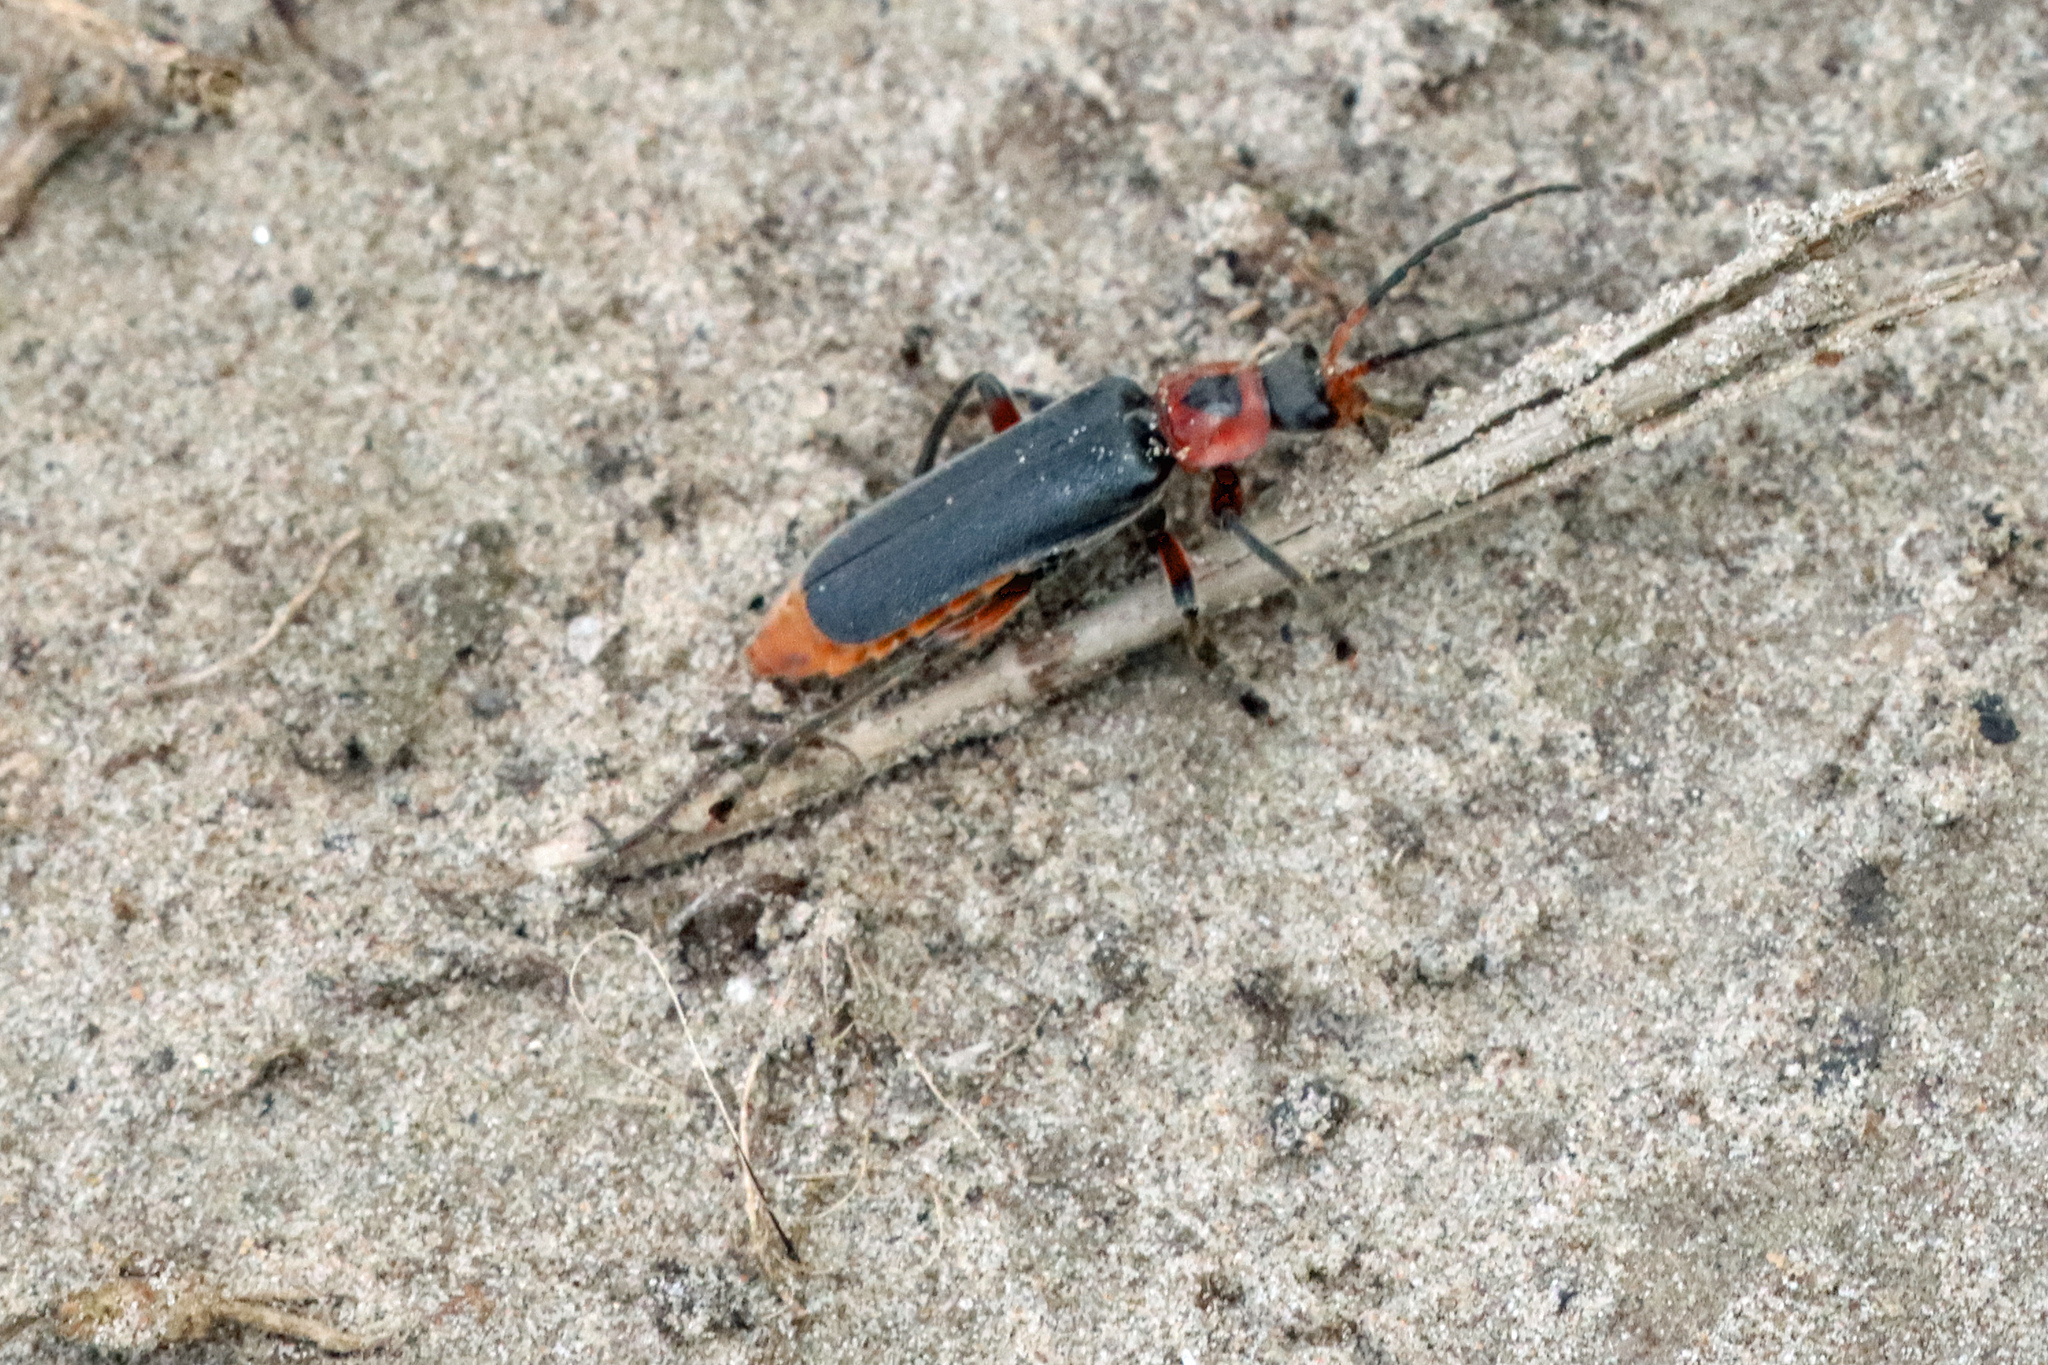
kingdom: Animalia
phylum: Arthropoda
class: Insecta
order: Coleoptera
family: Cantharidae
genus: Cantharis
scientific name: Cantharis rustica
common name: Soldier beetle
